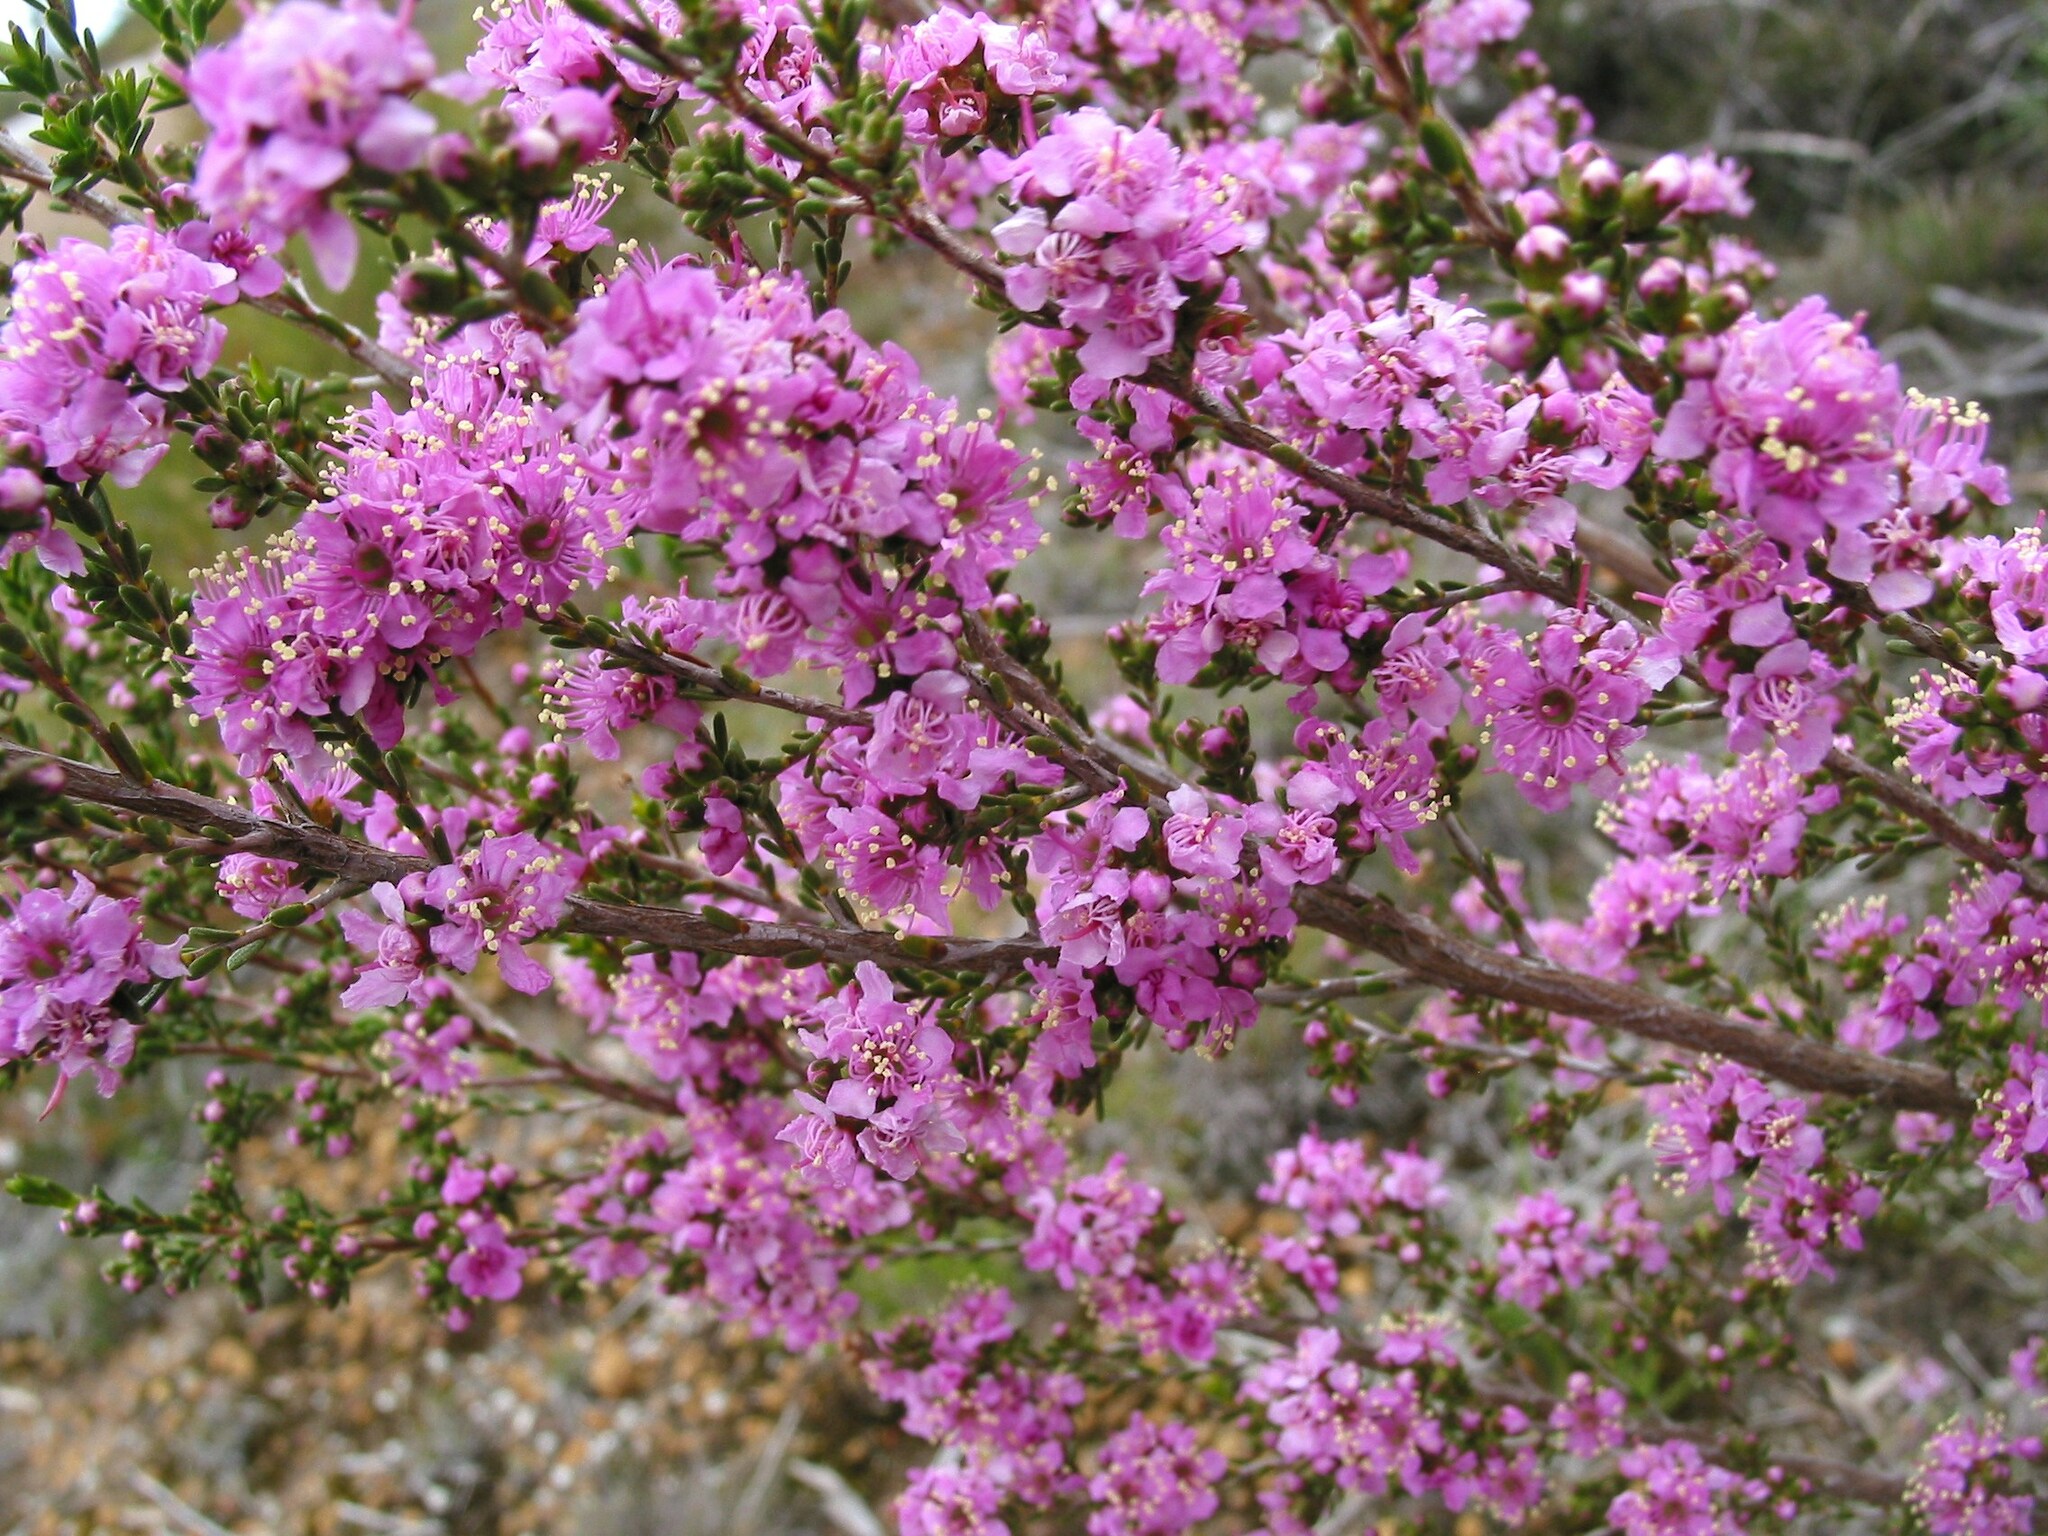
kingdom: Plantae
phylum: Tracheophyta
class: Magnoliopsida
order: Myrtales
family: Myrtaceae
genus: Kunzea
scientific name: Kunzea affinis
